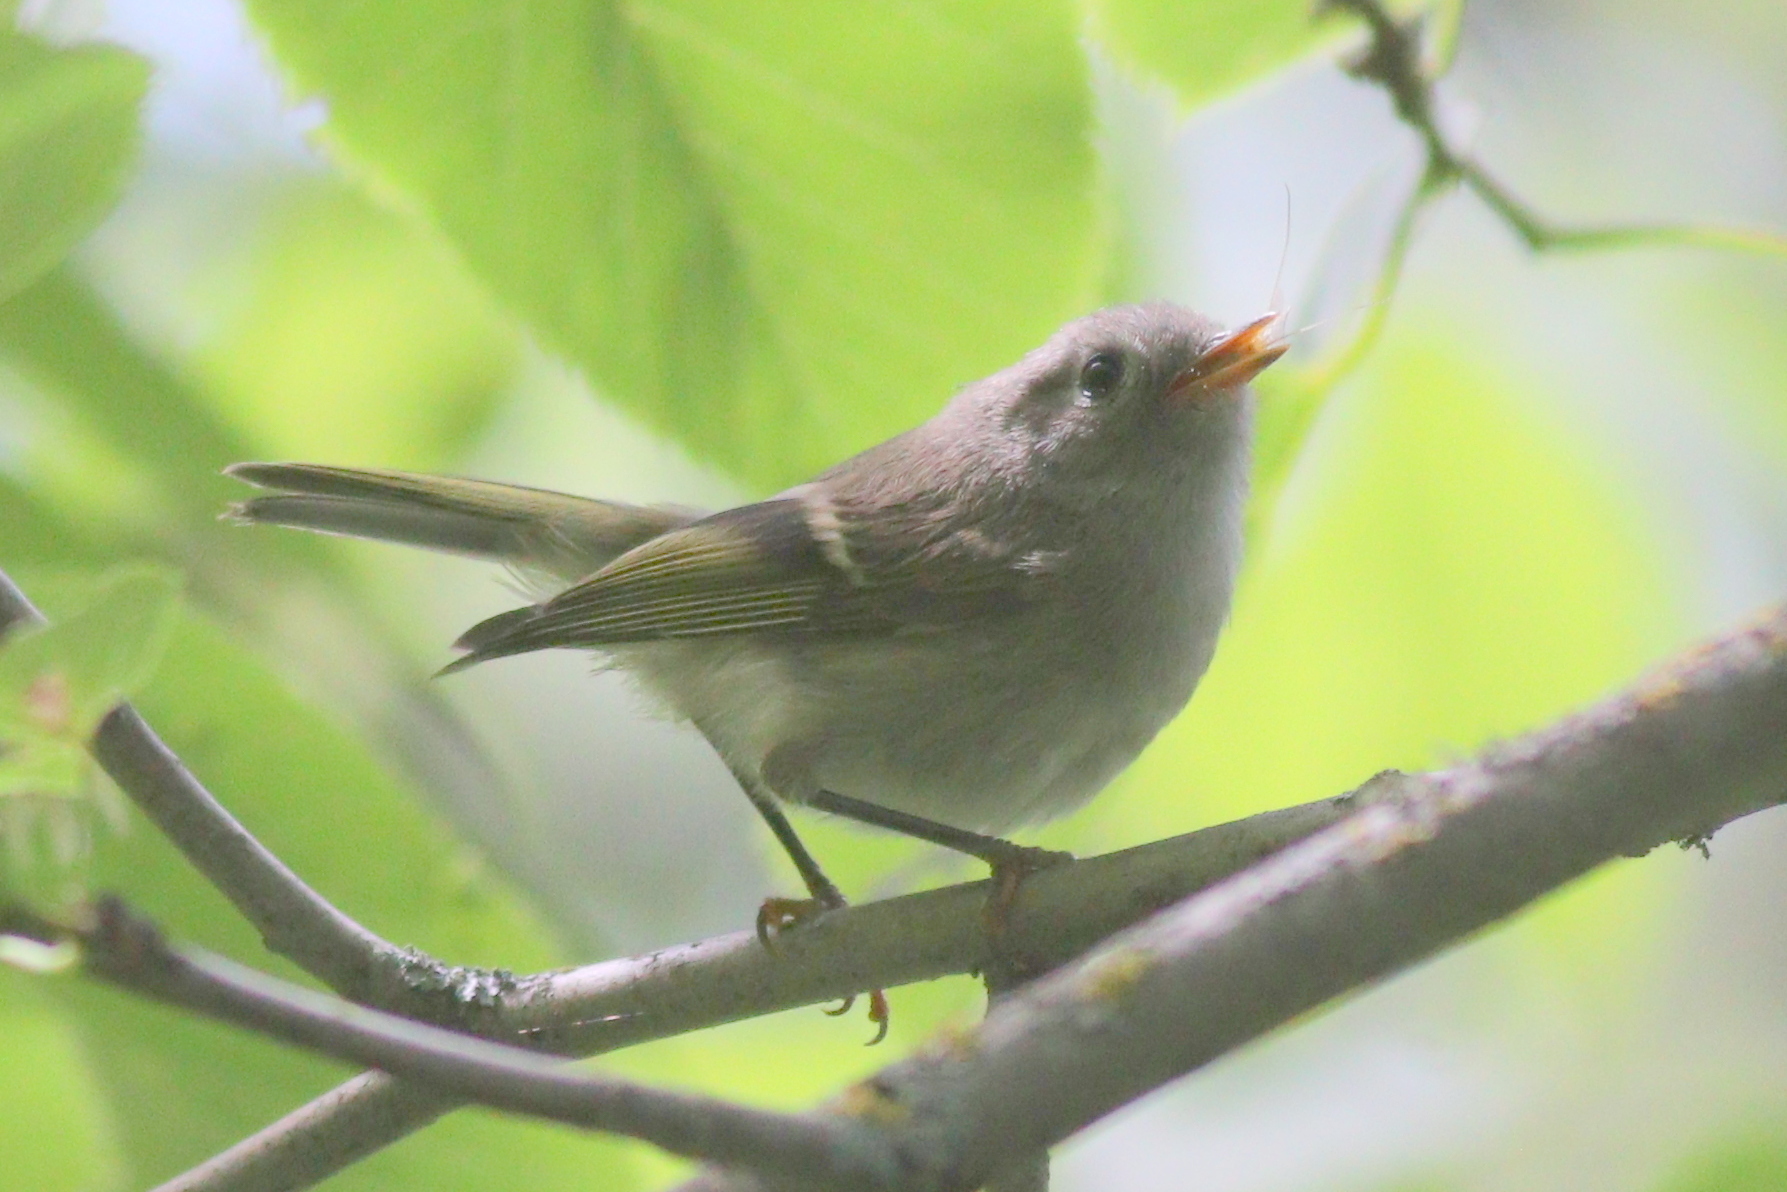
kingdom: Animalia
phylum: Chordata
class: Aves
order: Passeriformes
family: Regulidae
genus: Regulus
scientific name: Regulus calendula
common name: Ruby-crowned kinglet
